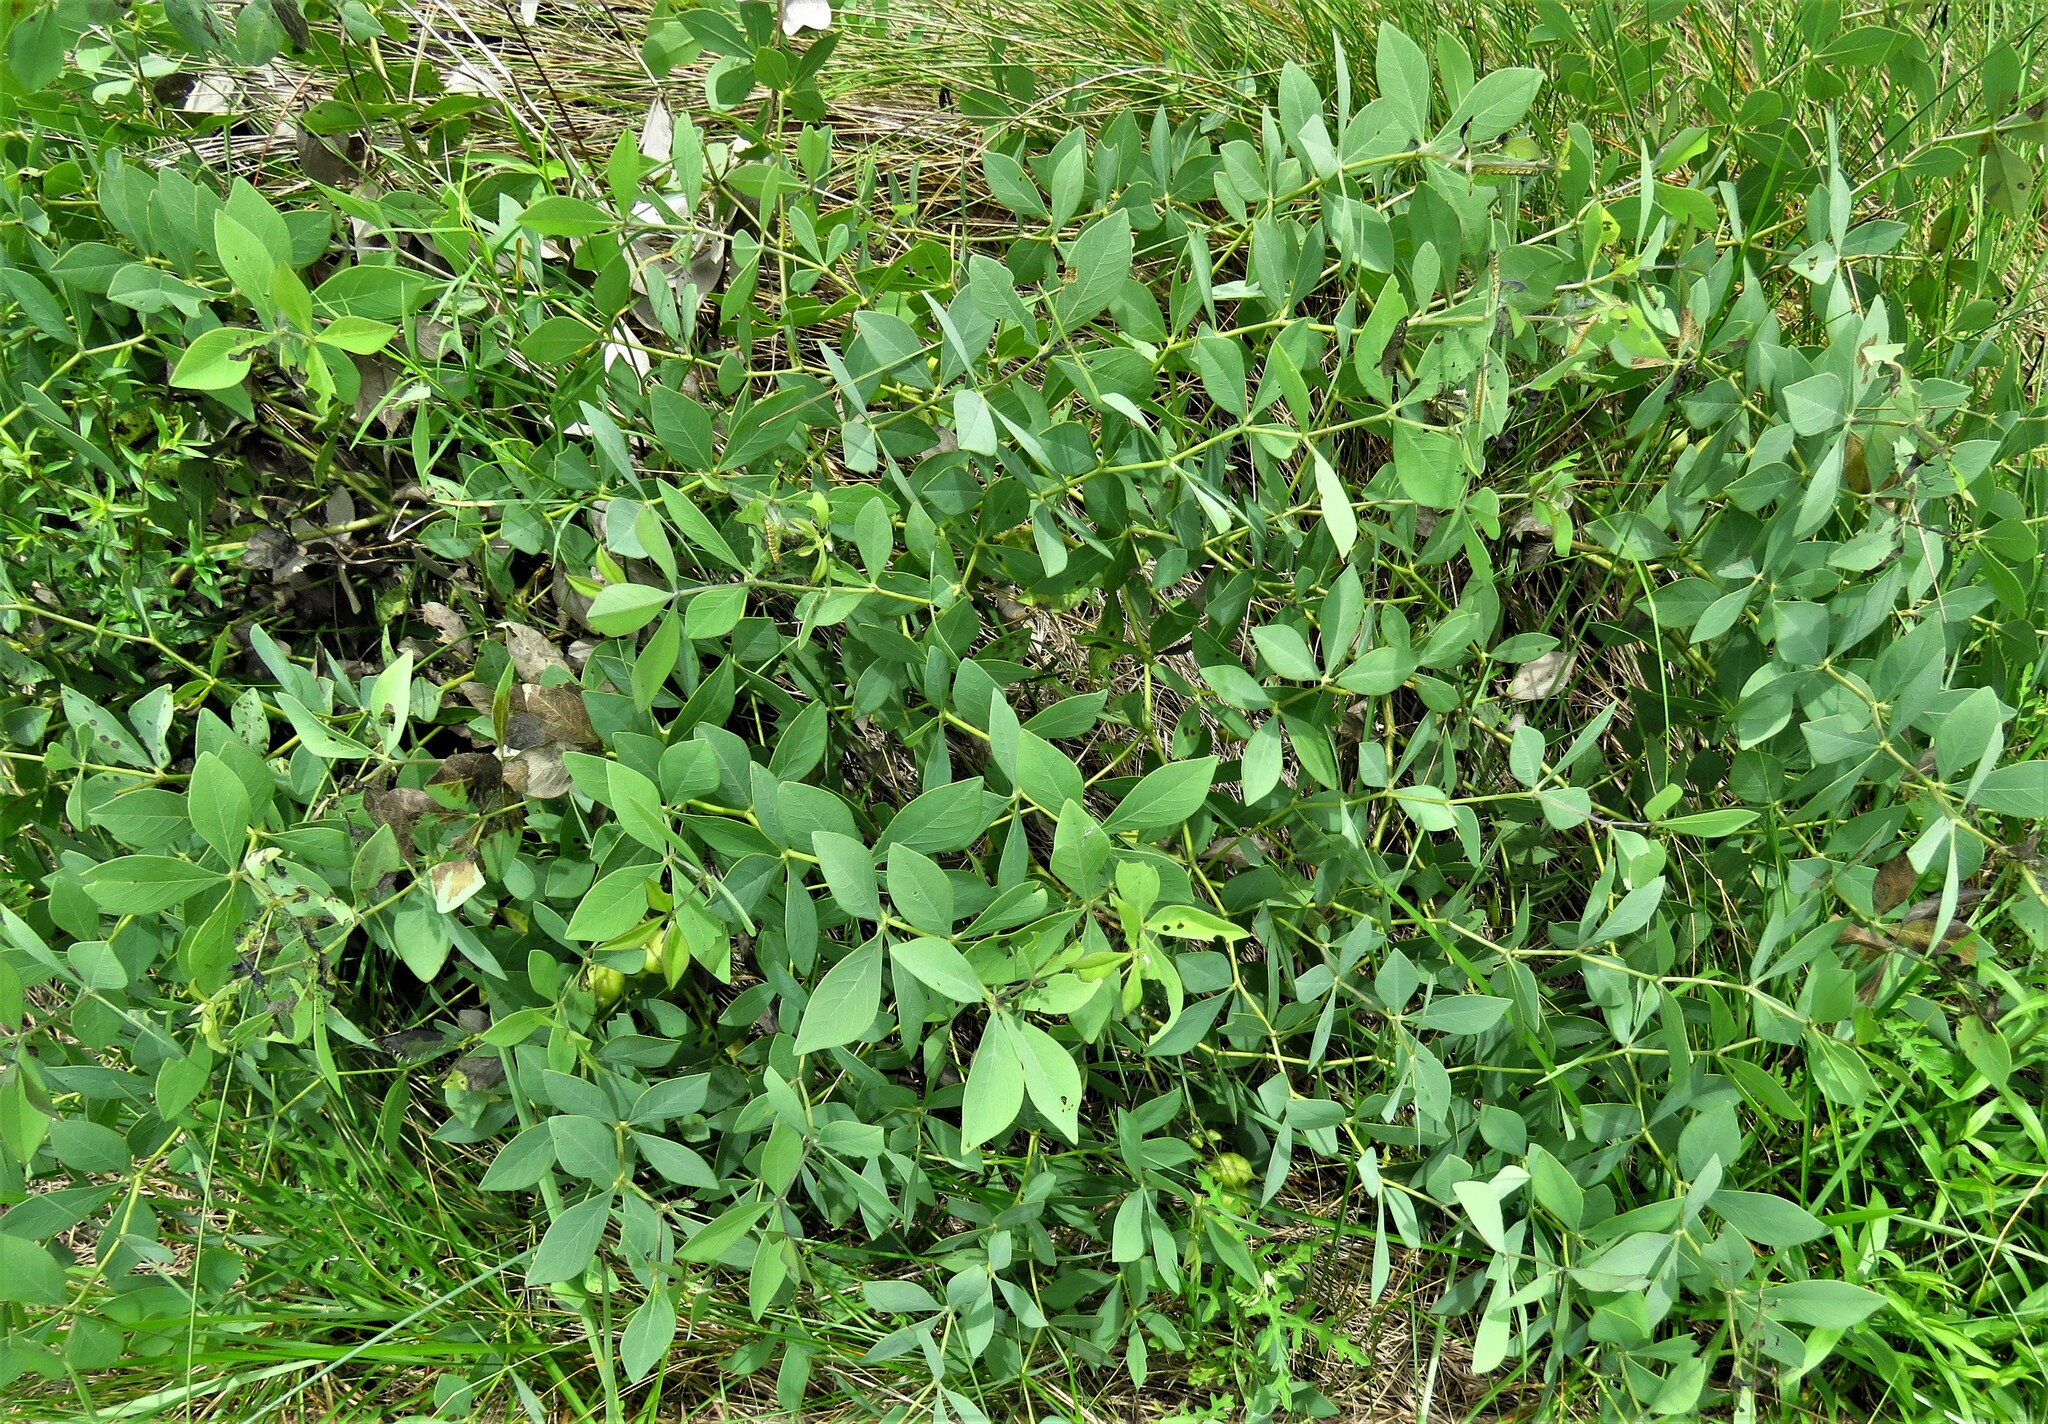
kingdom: Plantae
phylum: Tracheophyta
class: Magnoliopsida
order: Fabales
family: Fabaceae
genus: Baptisia
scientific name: Baptisia bracteata
